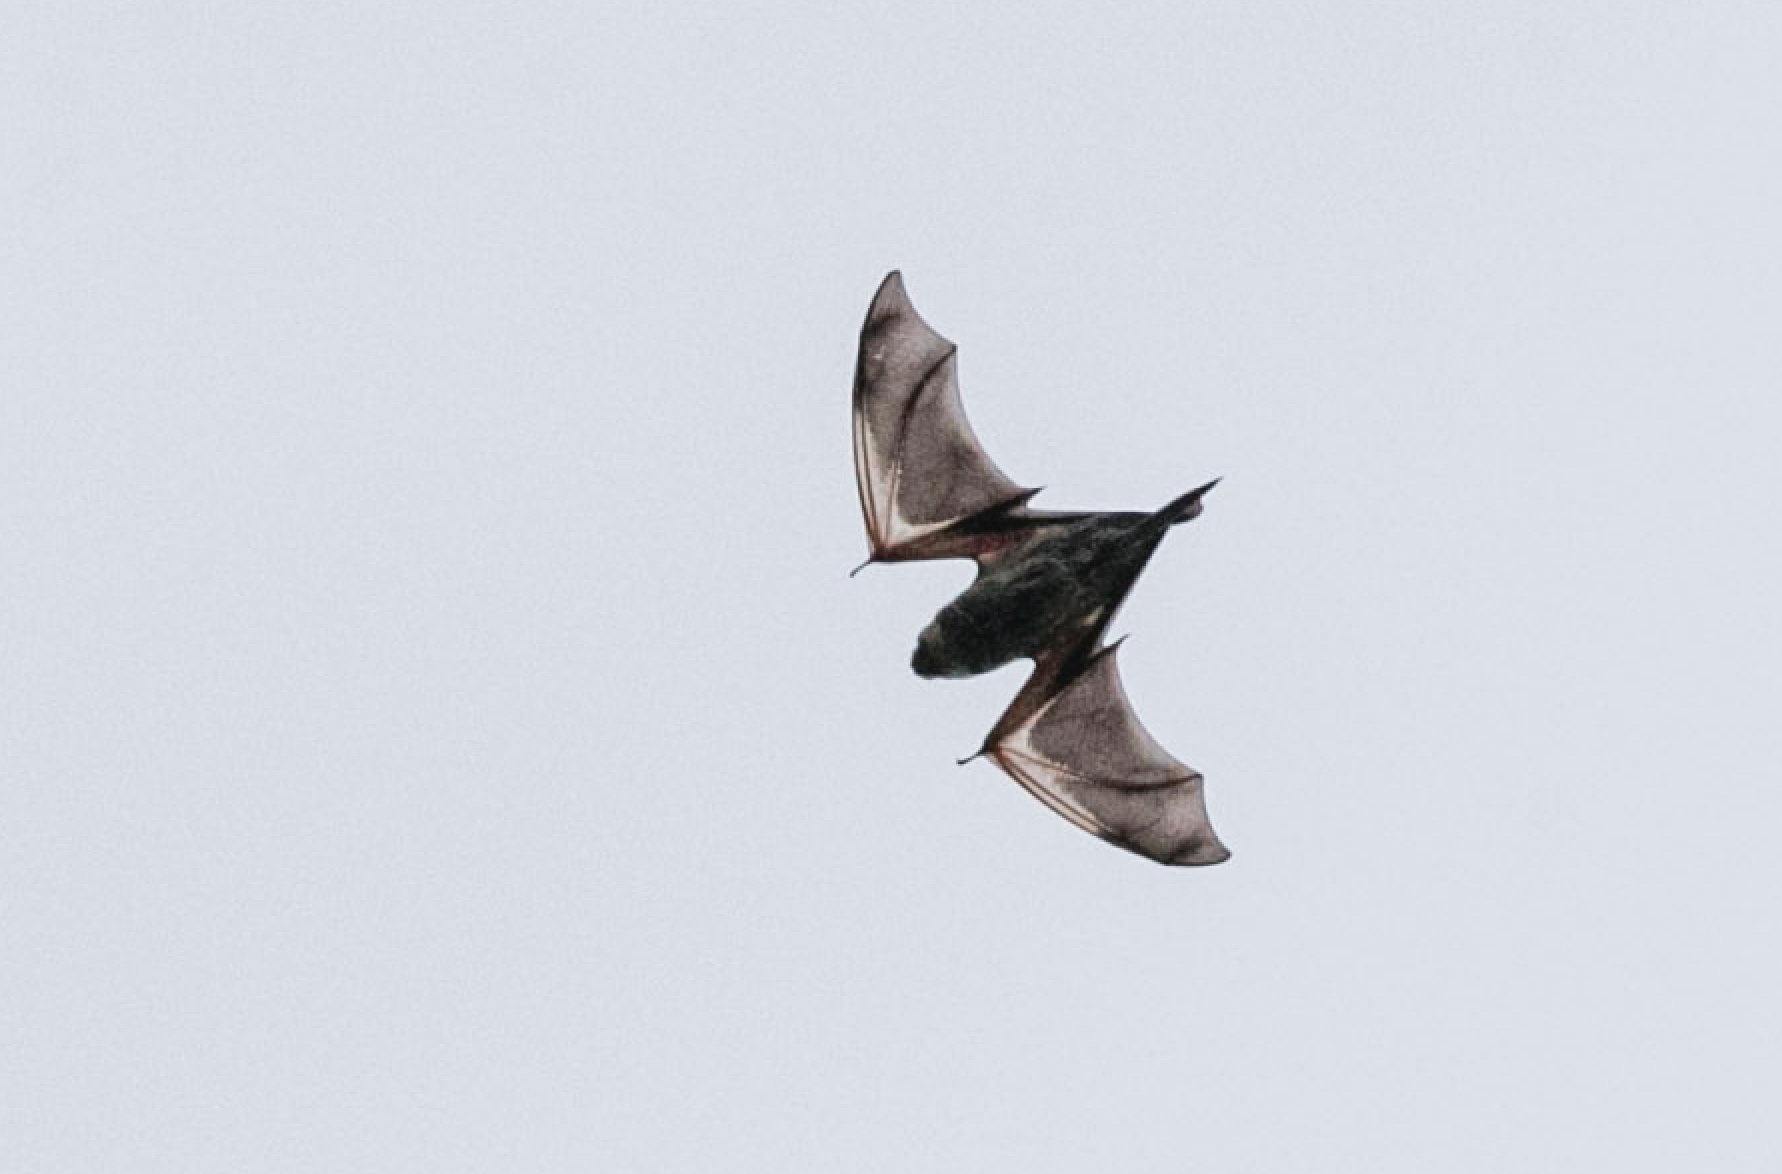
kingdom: Animalia
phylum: Chordata
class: Mammalia
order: Chiroptera
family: Vespertilionidae
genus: Aeorestes
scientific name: Aeorestes cinereus
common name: North american hoary bat
